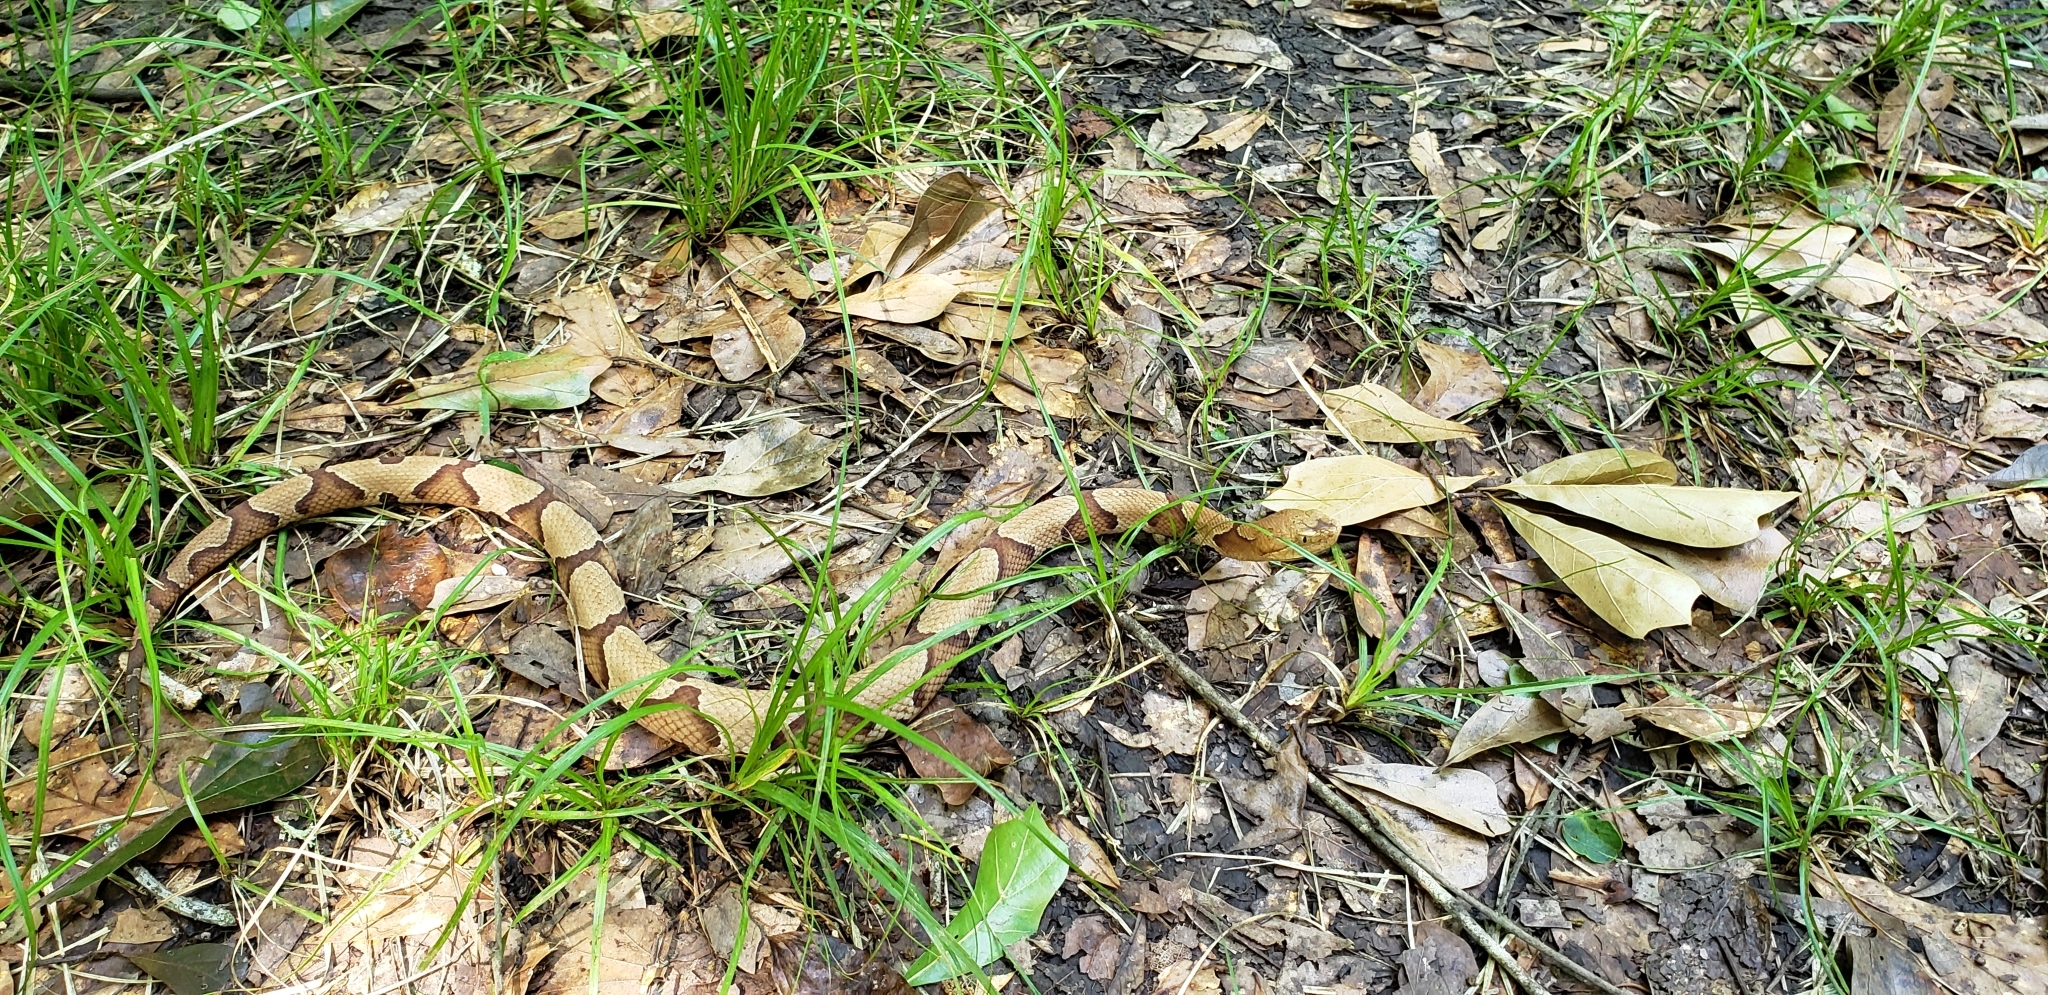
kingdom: Animalia
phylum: Chordata
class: Squamata
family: Viperidae
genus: Agkistrodon
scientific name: Agkistrodon contortrix
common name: Northern copperhead
